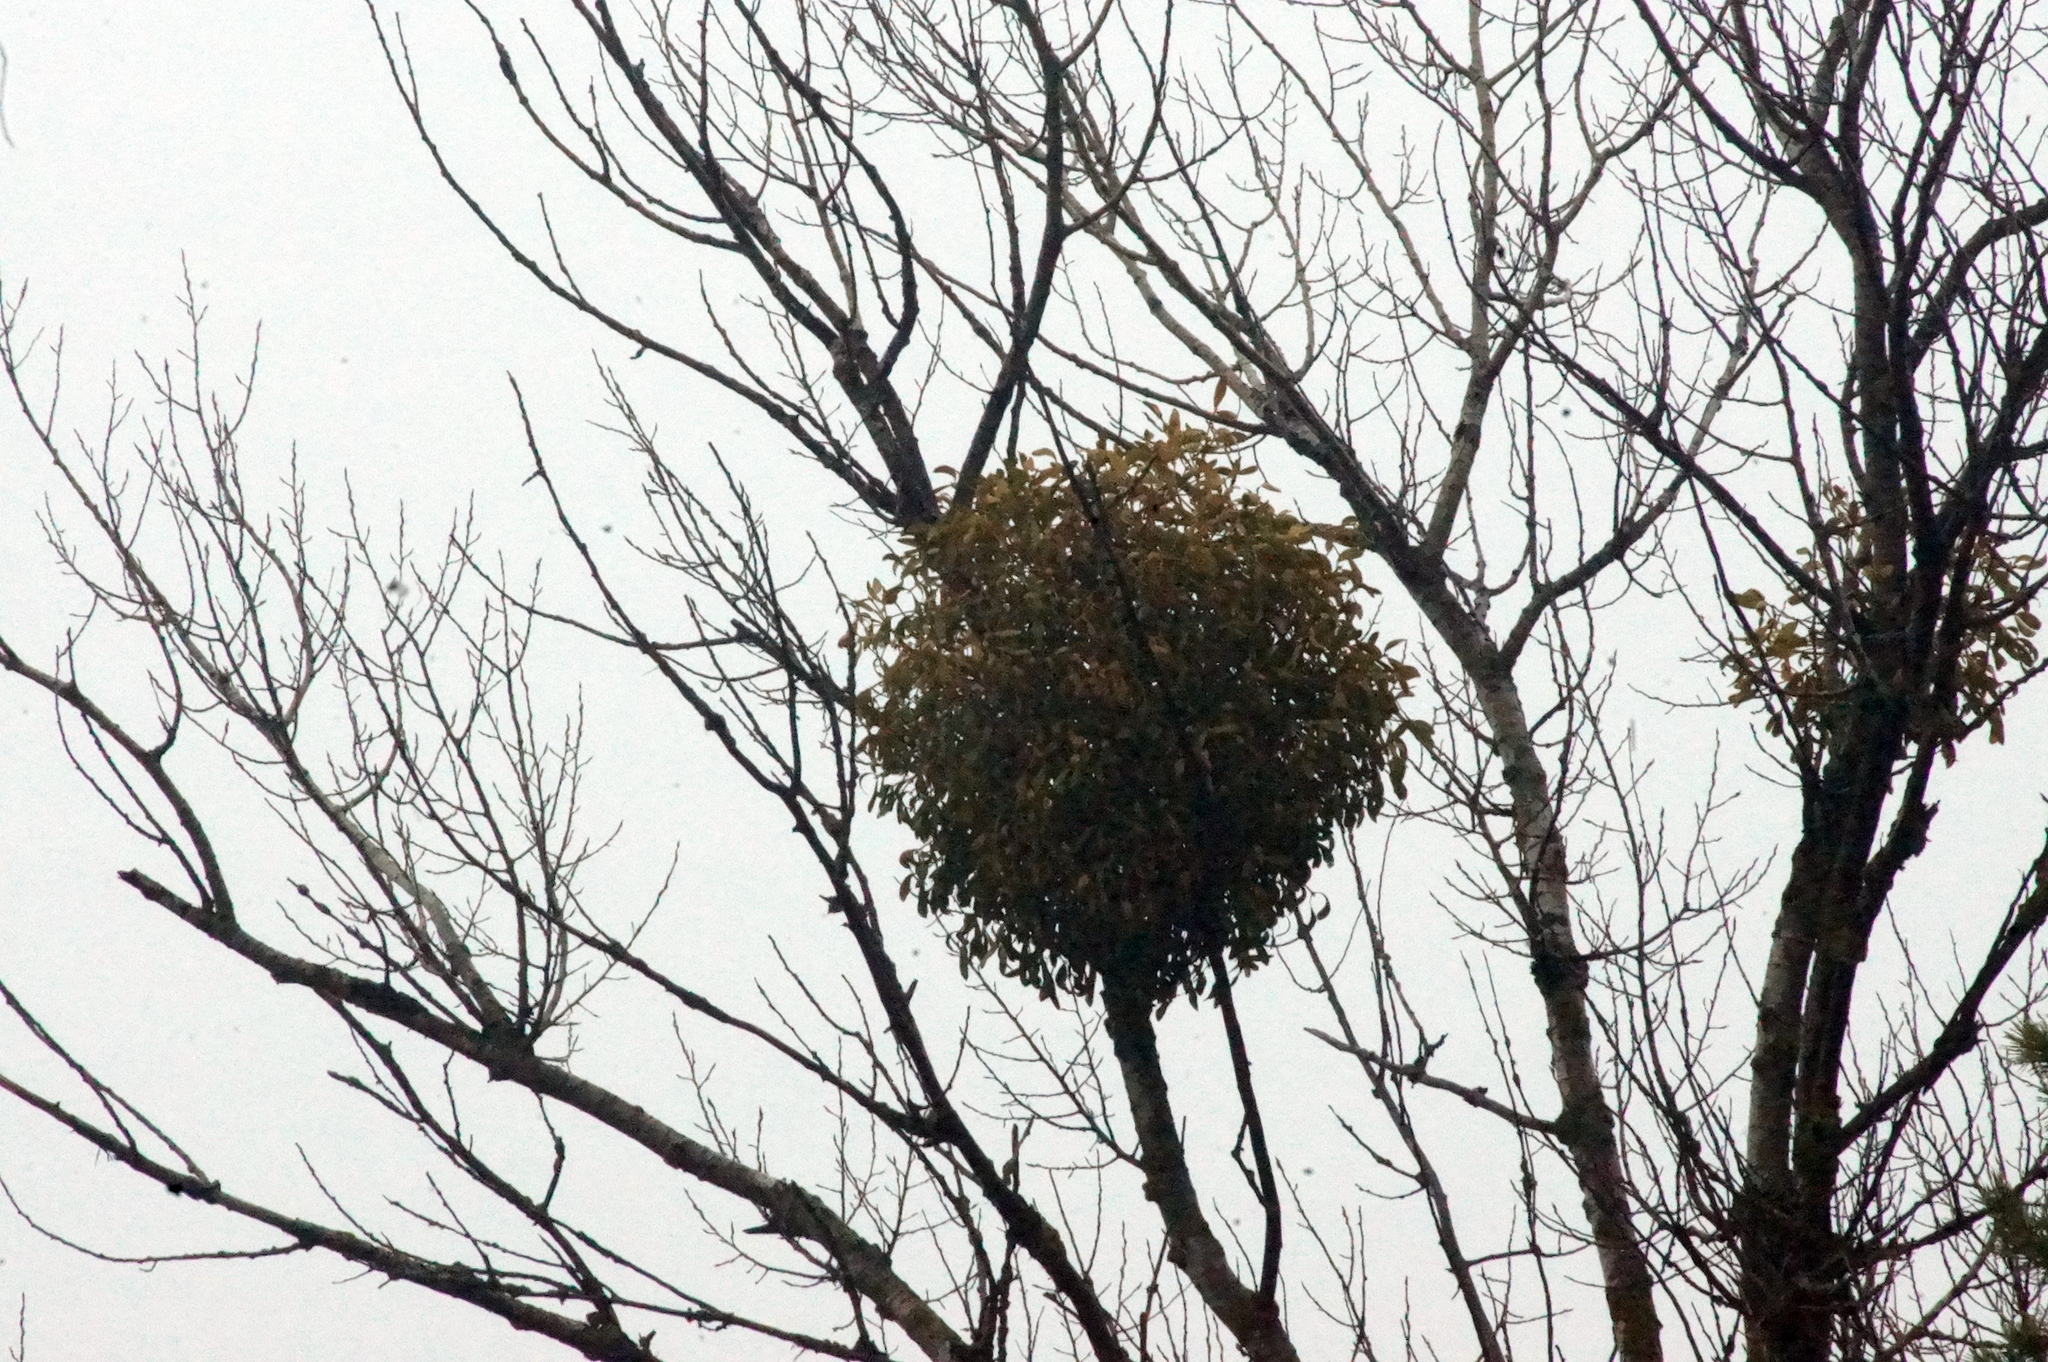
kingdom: Plantae
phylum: Tracheophyta
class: Magnoliopsida
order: Santalales
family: Viscaceae
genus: Viscum
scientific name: Viscum album
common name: Mistletoe
